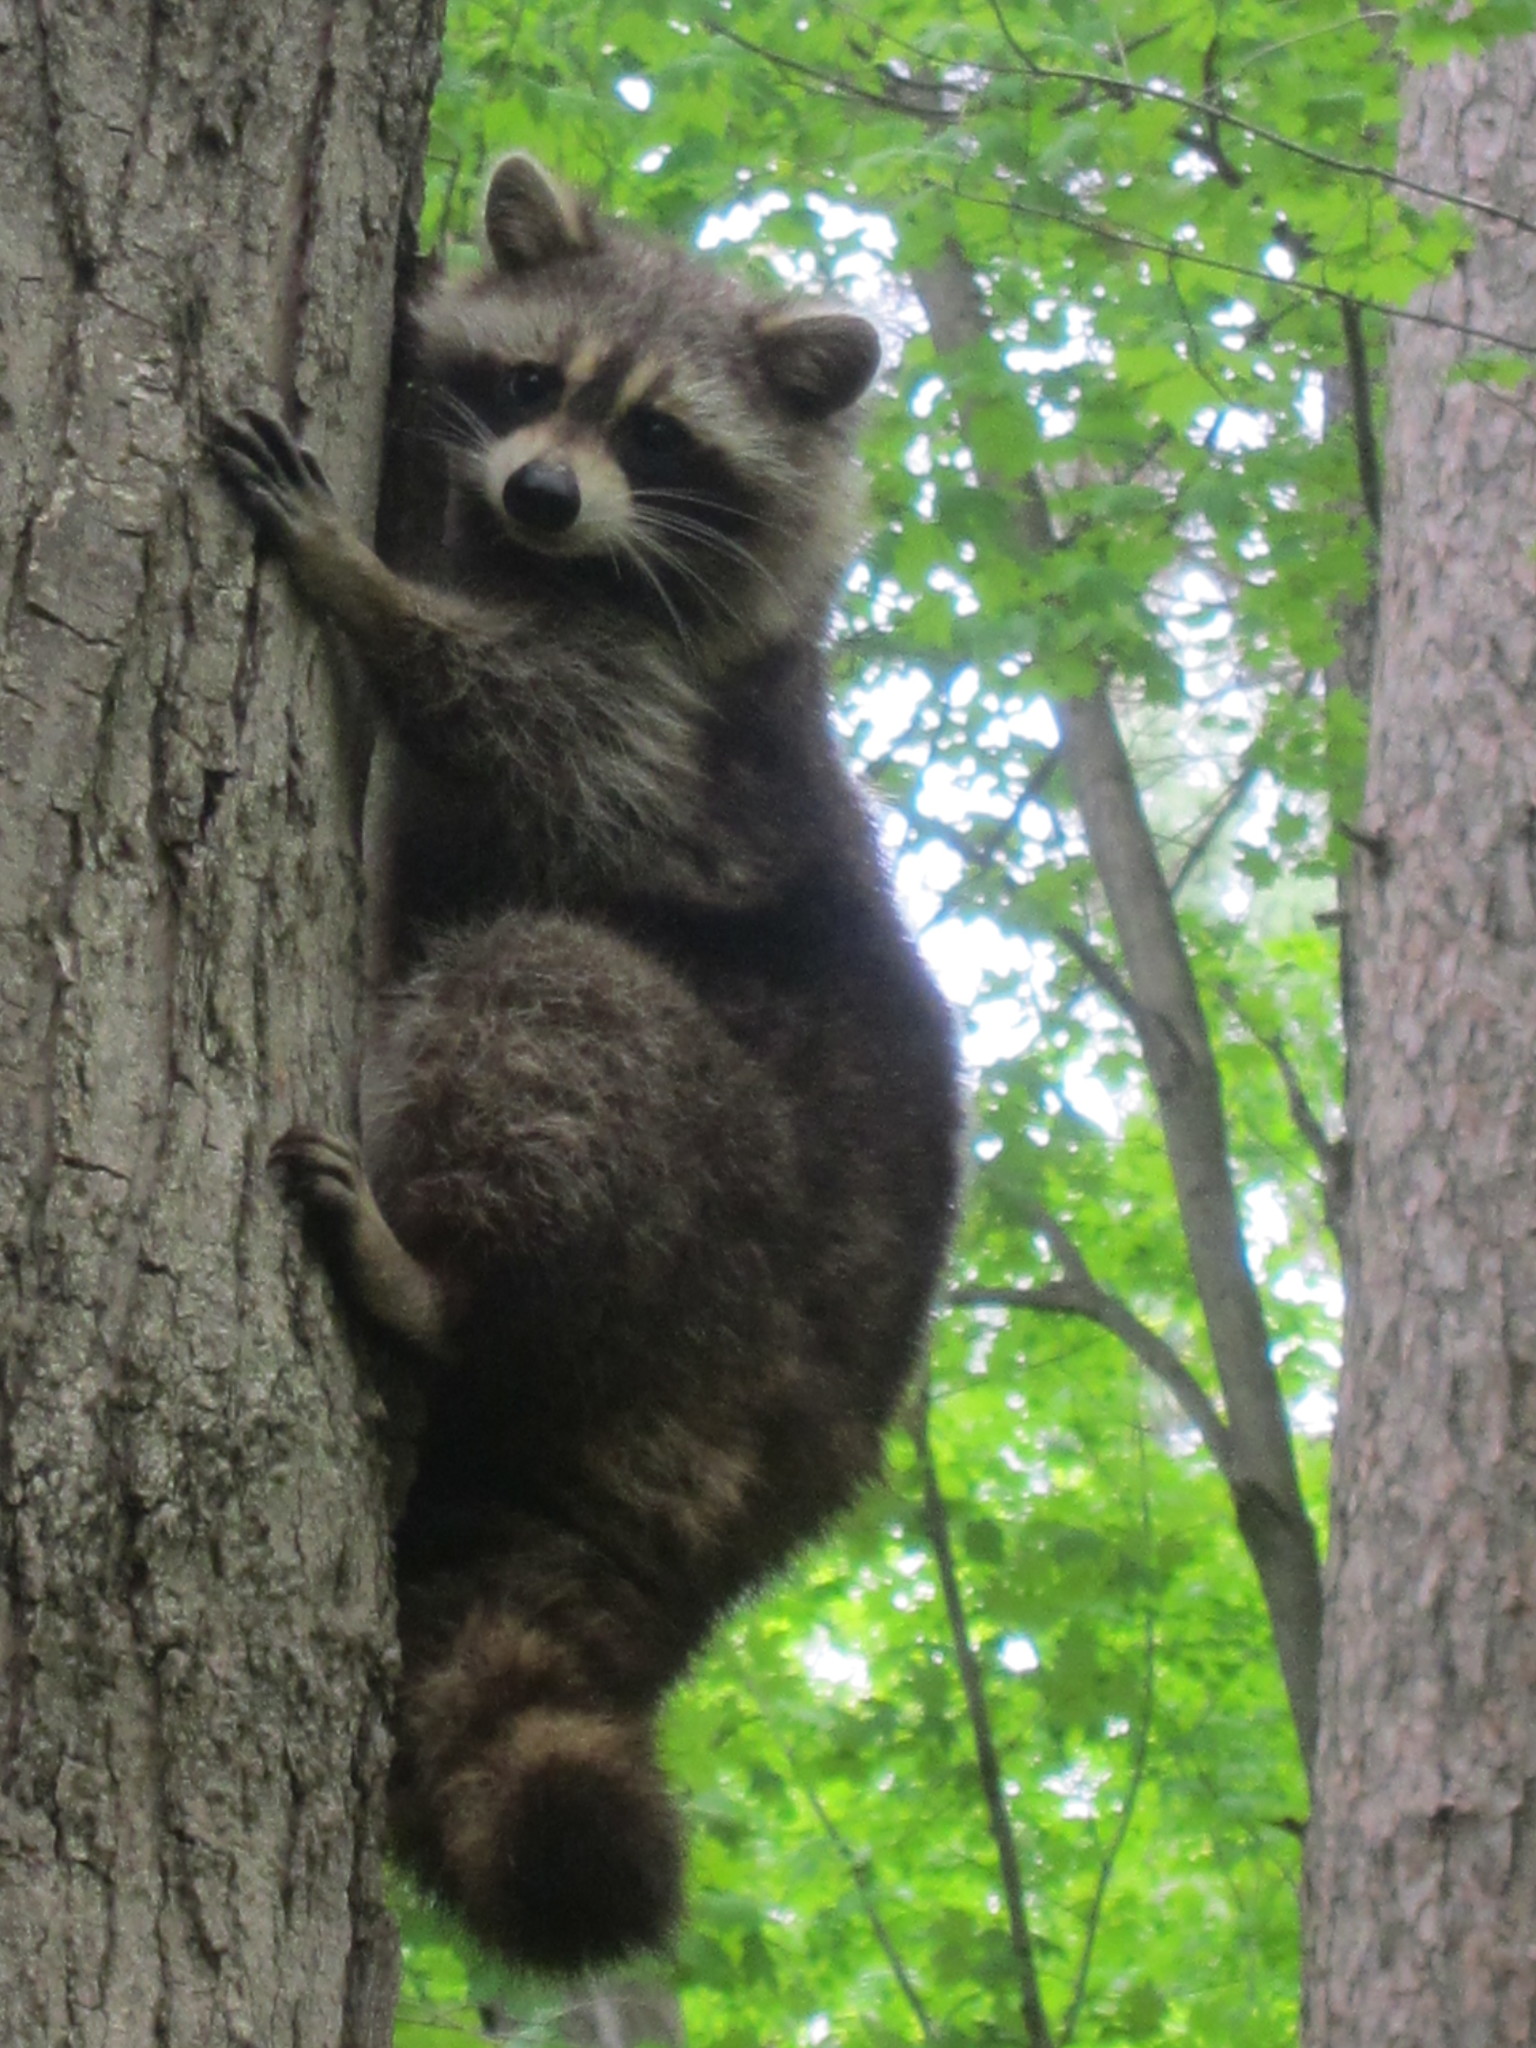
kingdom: Animalia
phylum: Chordata
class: Mammalia
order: Carnivora
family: Procyonidae
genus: Procyon
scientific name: Procyon lotor
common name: Raccoon
